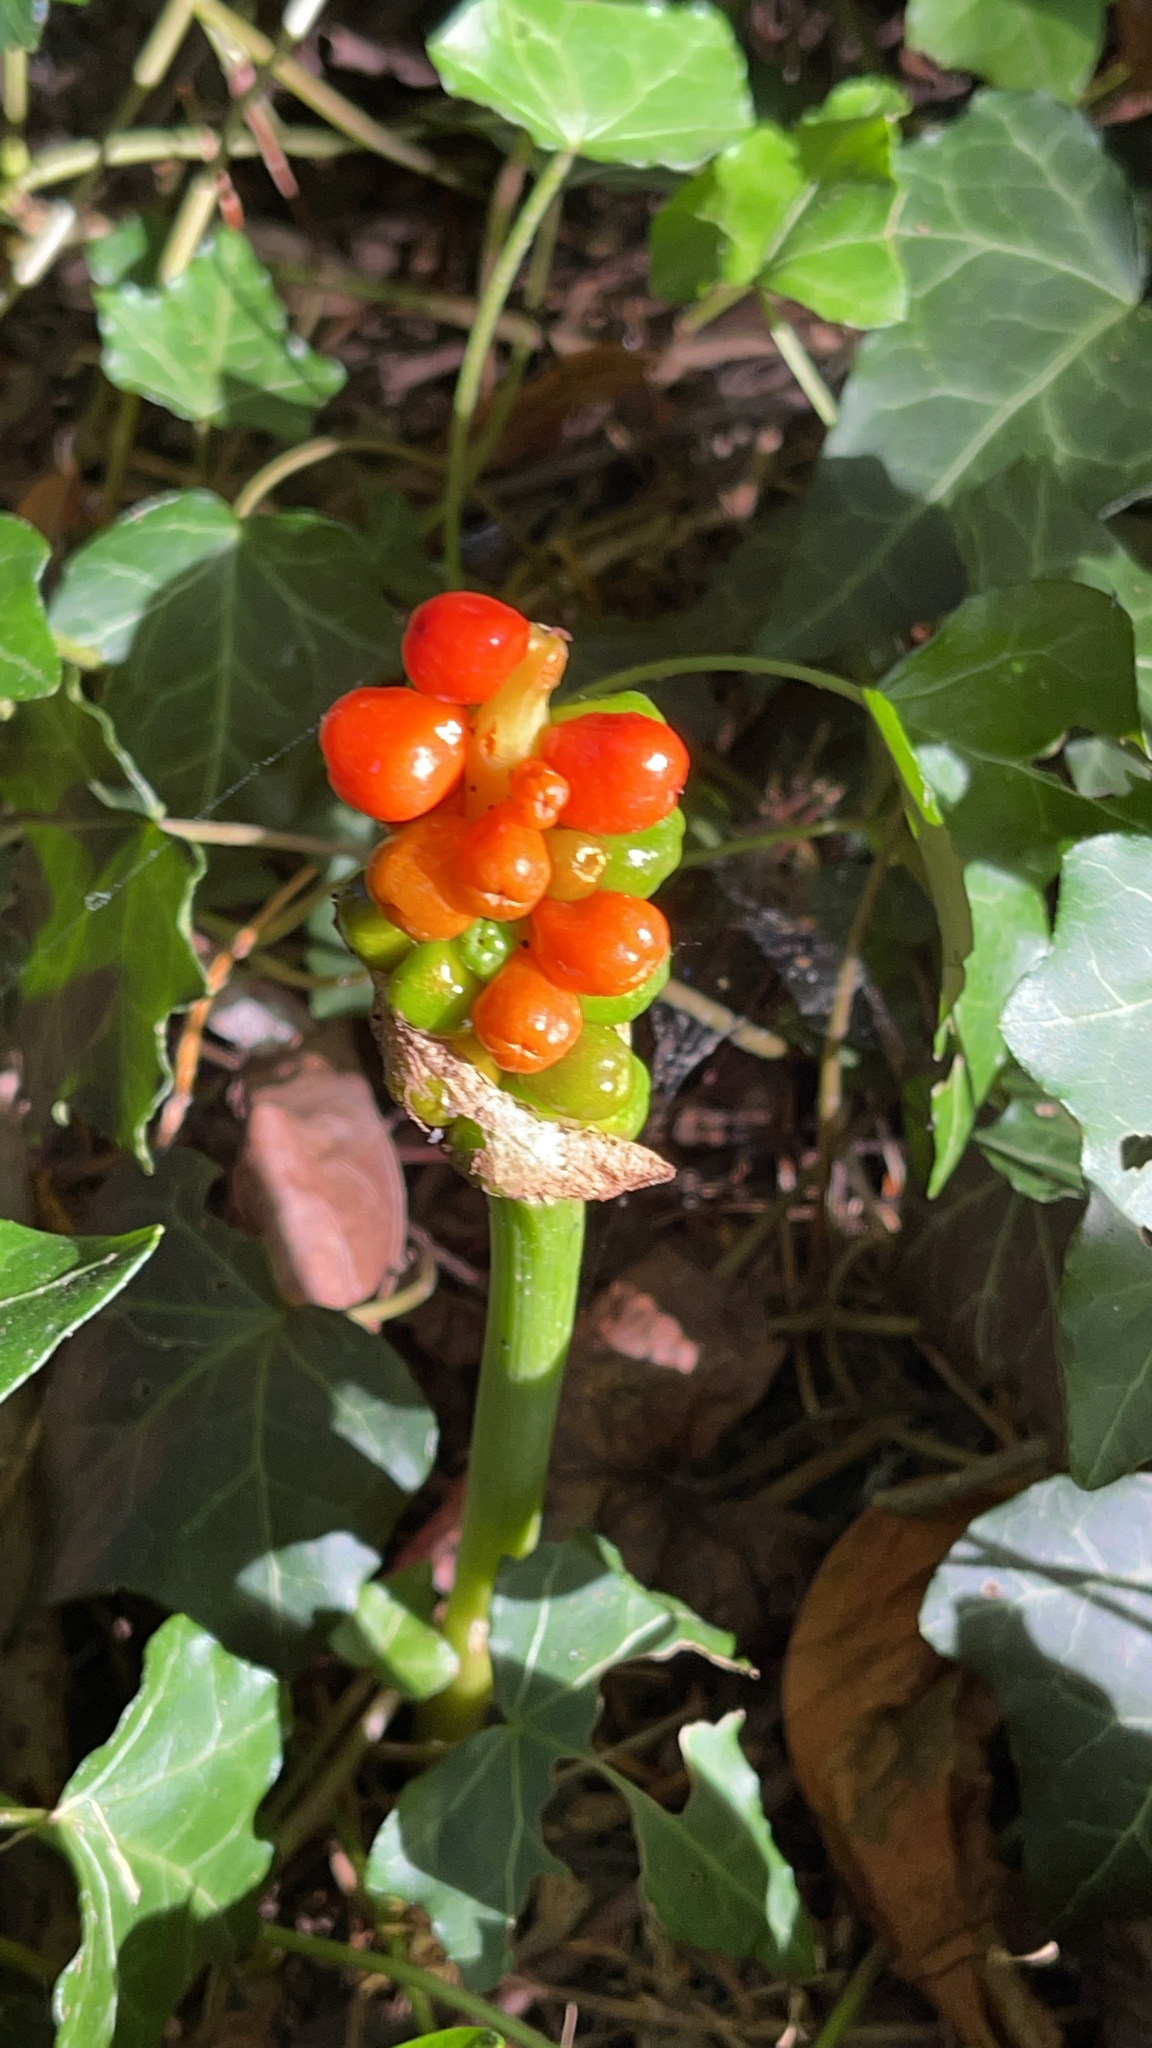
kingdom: Plantae
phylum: Tracheophyta
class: Liliopsida
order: Alismatales
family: Araceae
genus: Arum
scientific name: Arum maculatum
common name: Lords-and-ladies
